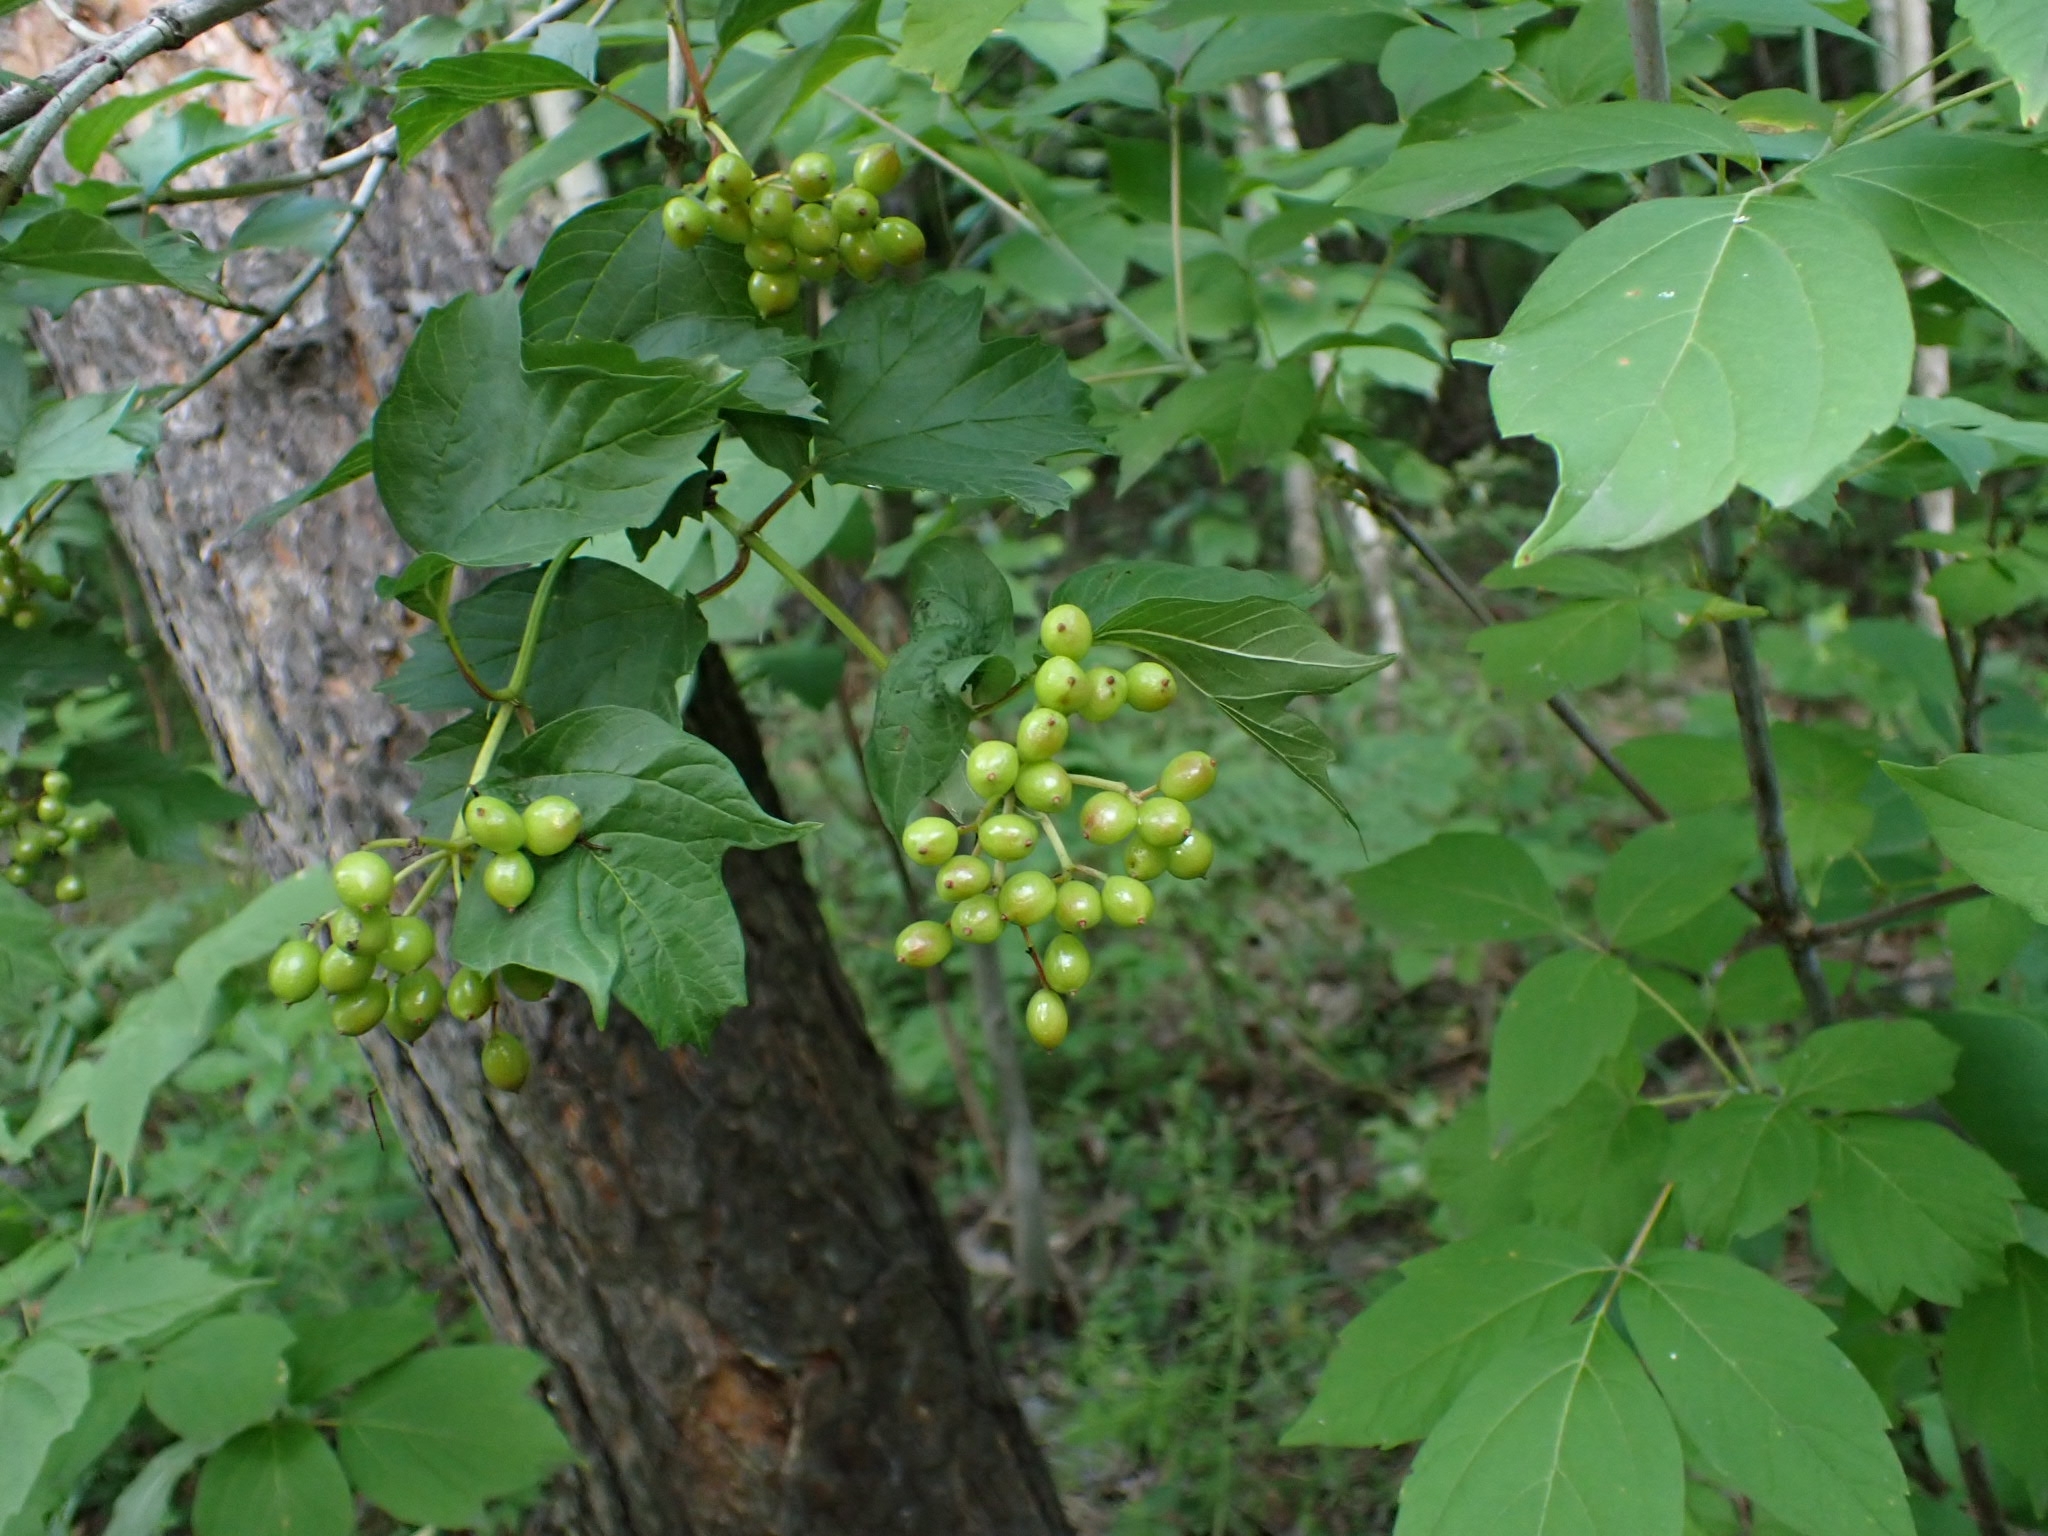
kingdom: Plantae
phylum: Tracheophyta
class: Magnoliopsida
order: Dipsacales
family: Viburnaceae
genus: Viburnum
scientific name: Viburnum opulus
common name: Guelder-rose
